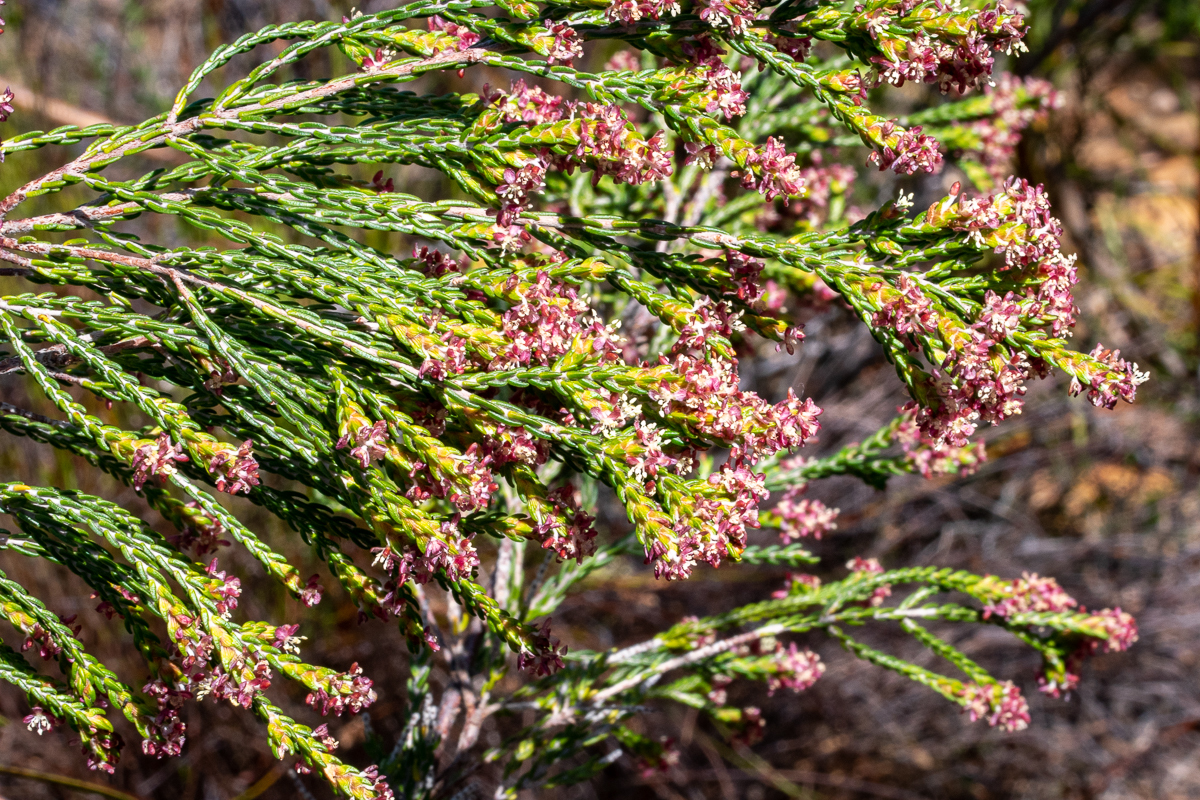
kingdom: Plantae
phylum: Tracheophyta
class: Magnoliopsida
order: Malvales
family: Thymelaeaceae
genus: Passerina
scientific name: Passerina corymbosa
